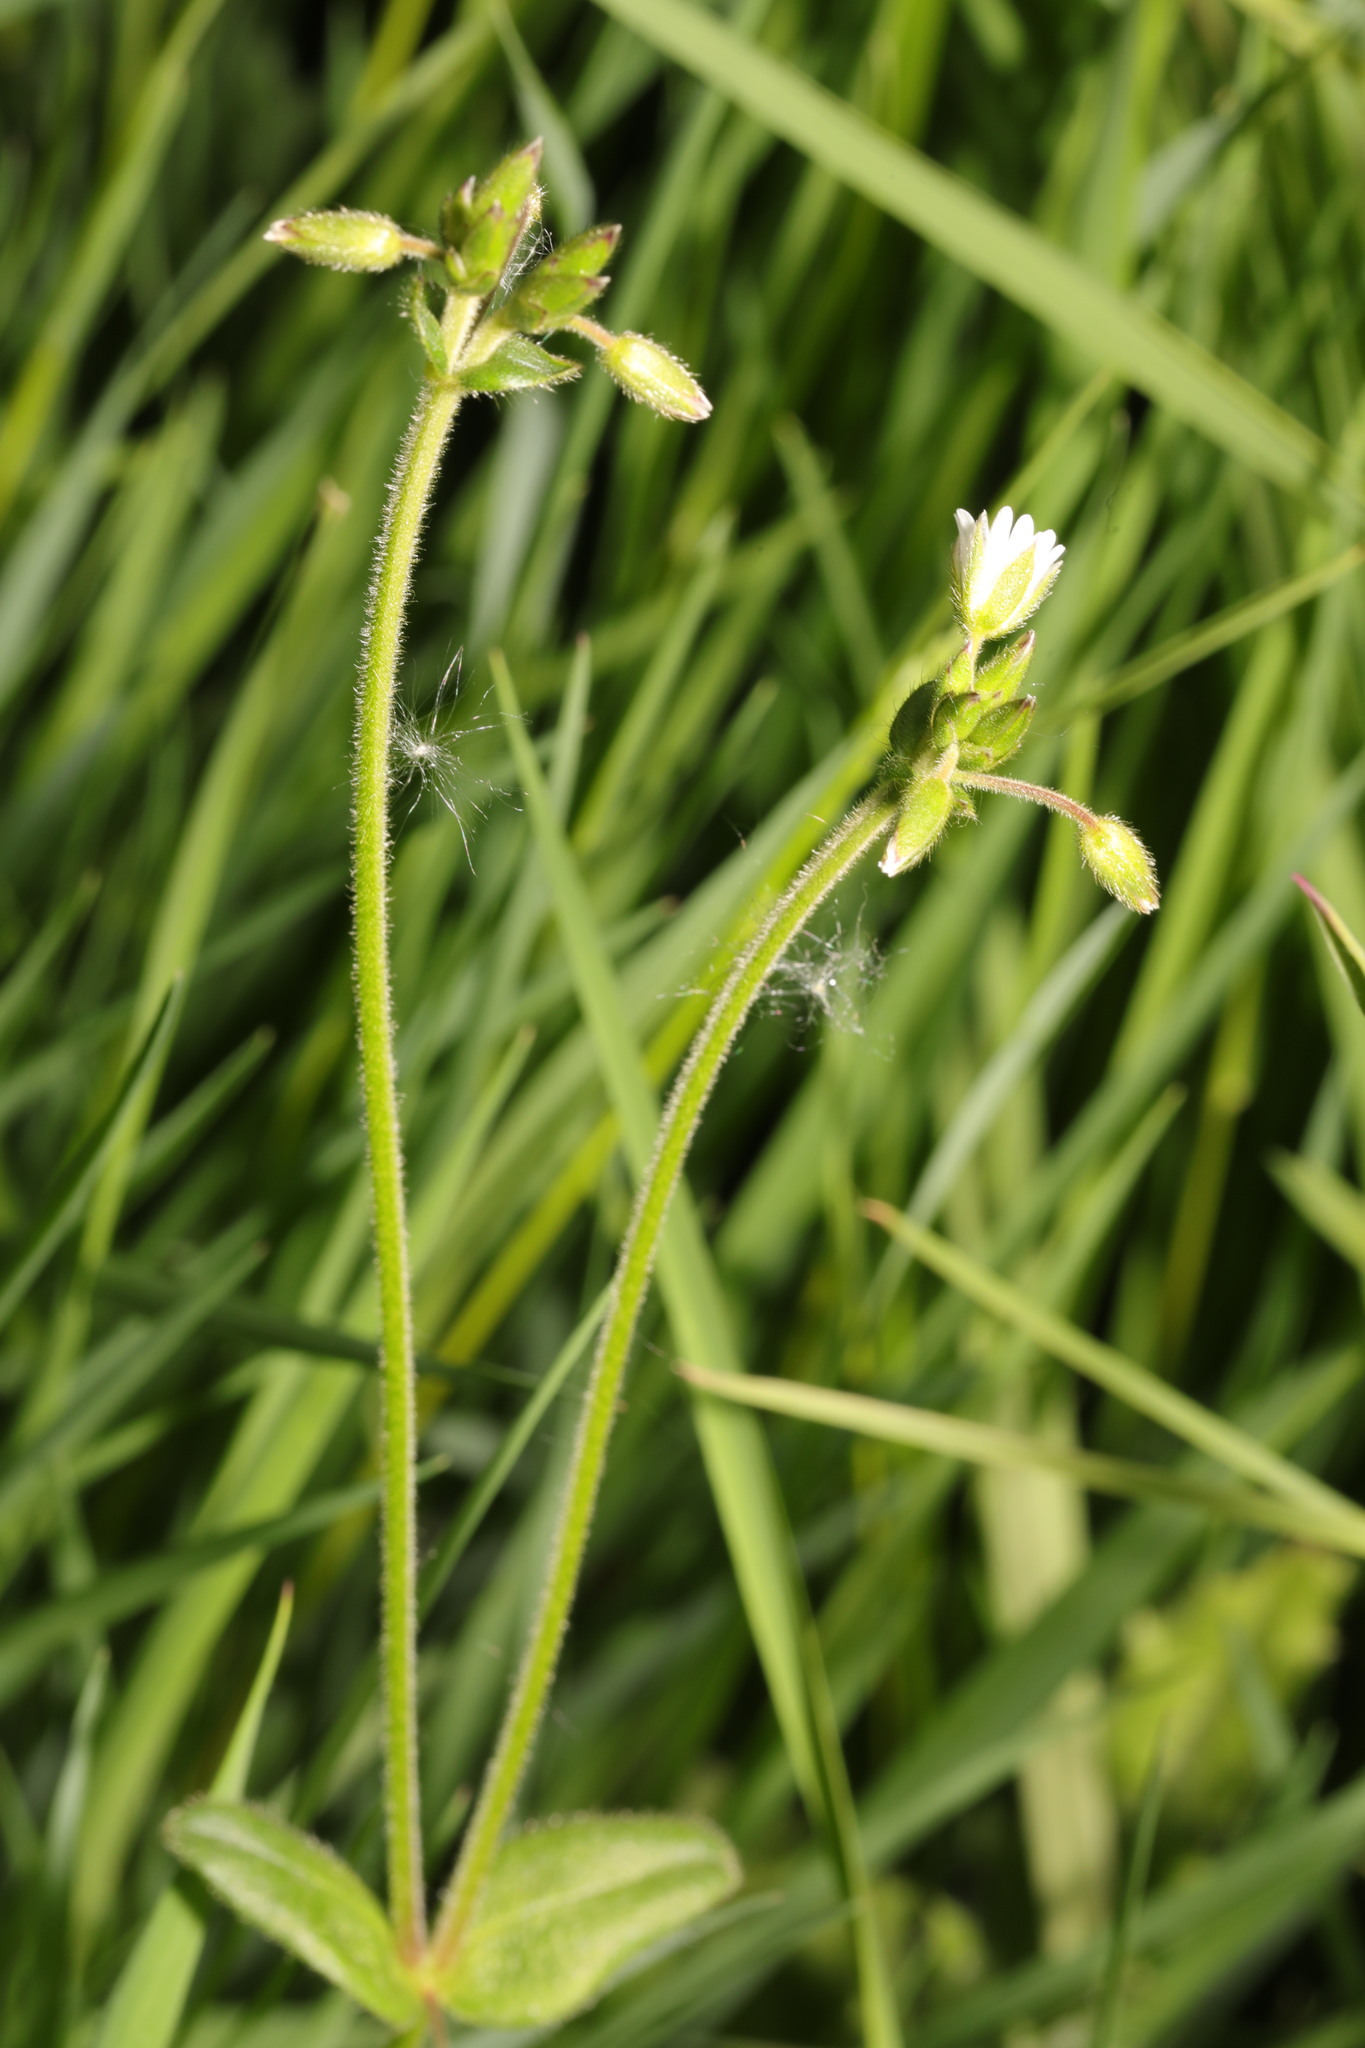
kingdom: Plantae
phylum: Tracheophyta
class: Magnoliopsida
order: Caryophyllales
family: Caryophyllaceae
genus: Cerastium
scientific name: Cerastium fontanum
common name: Common mouse-ear
